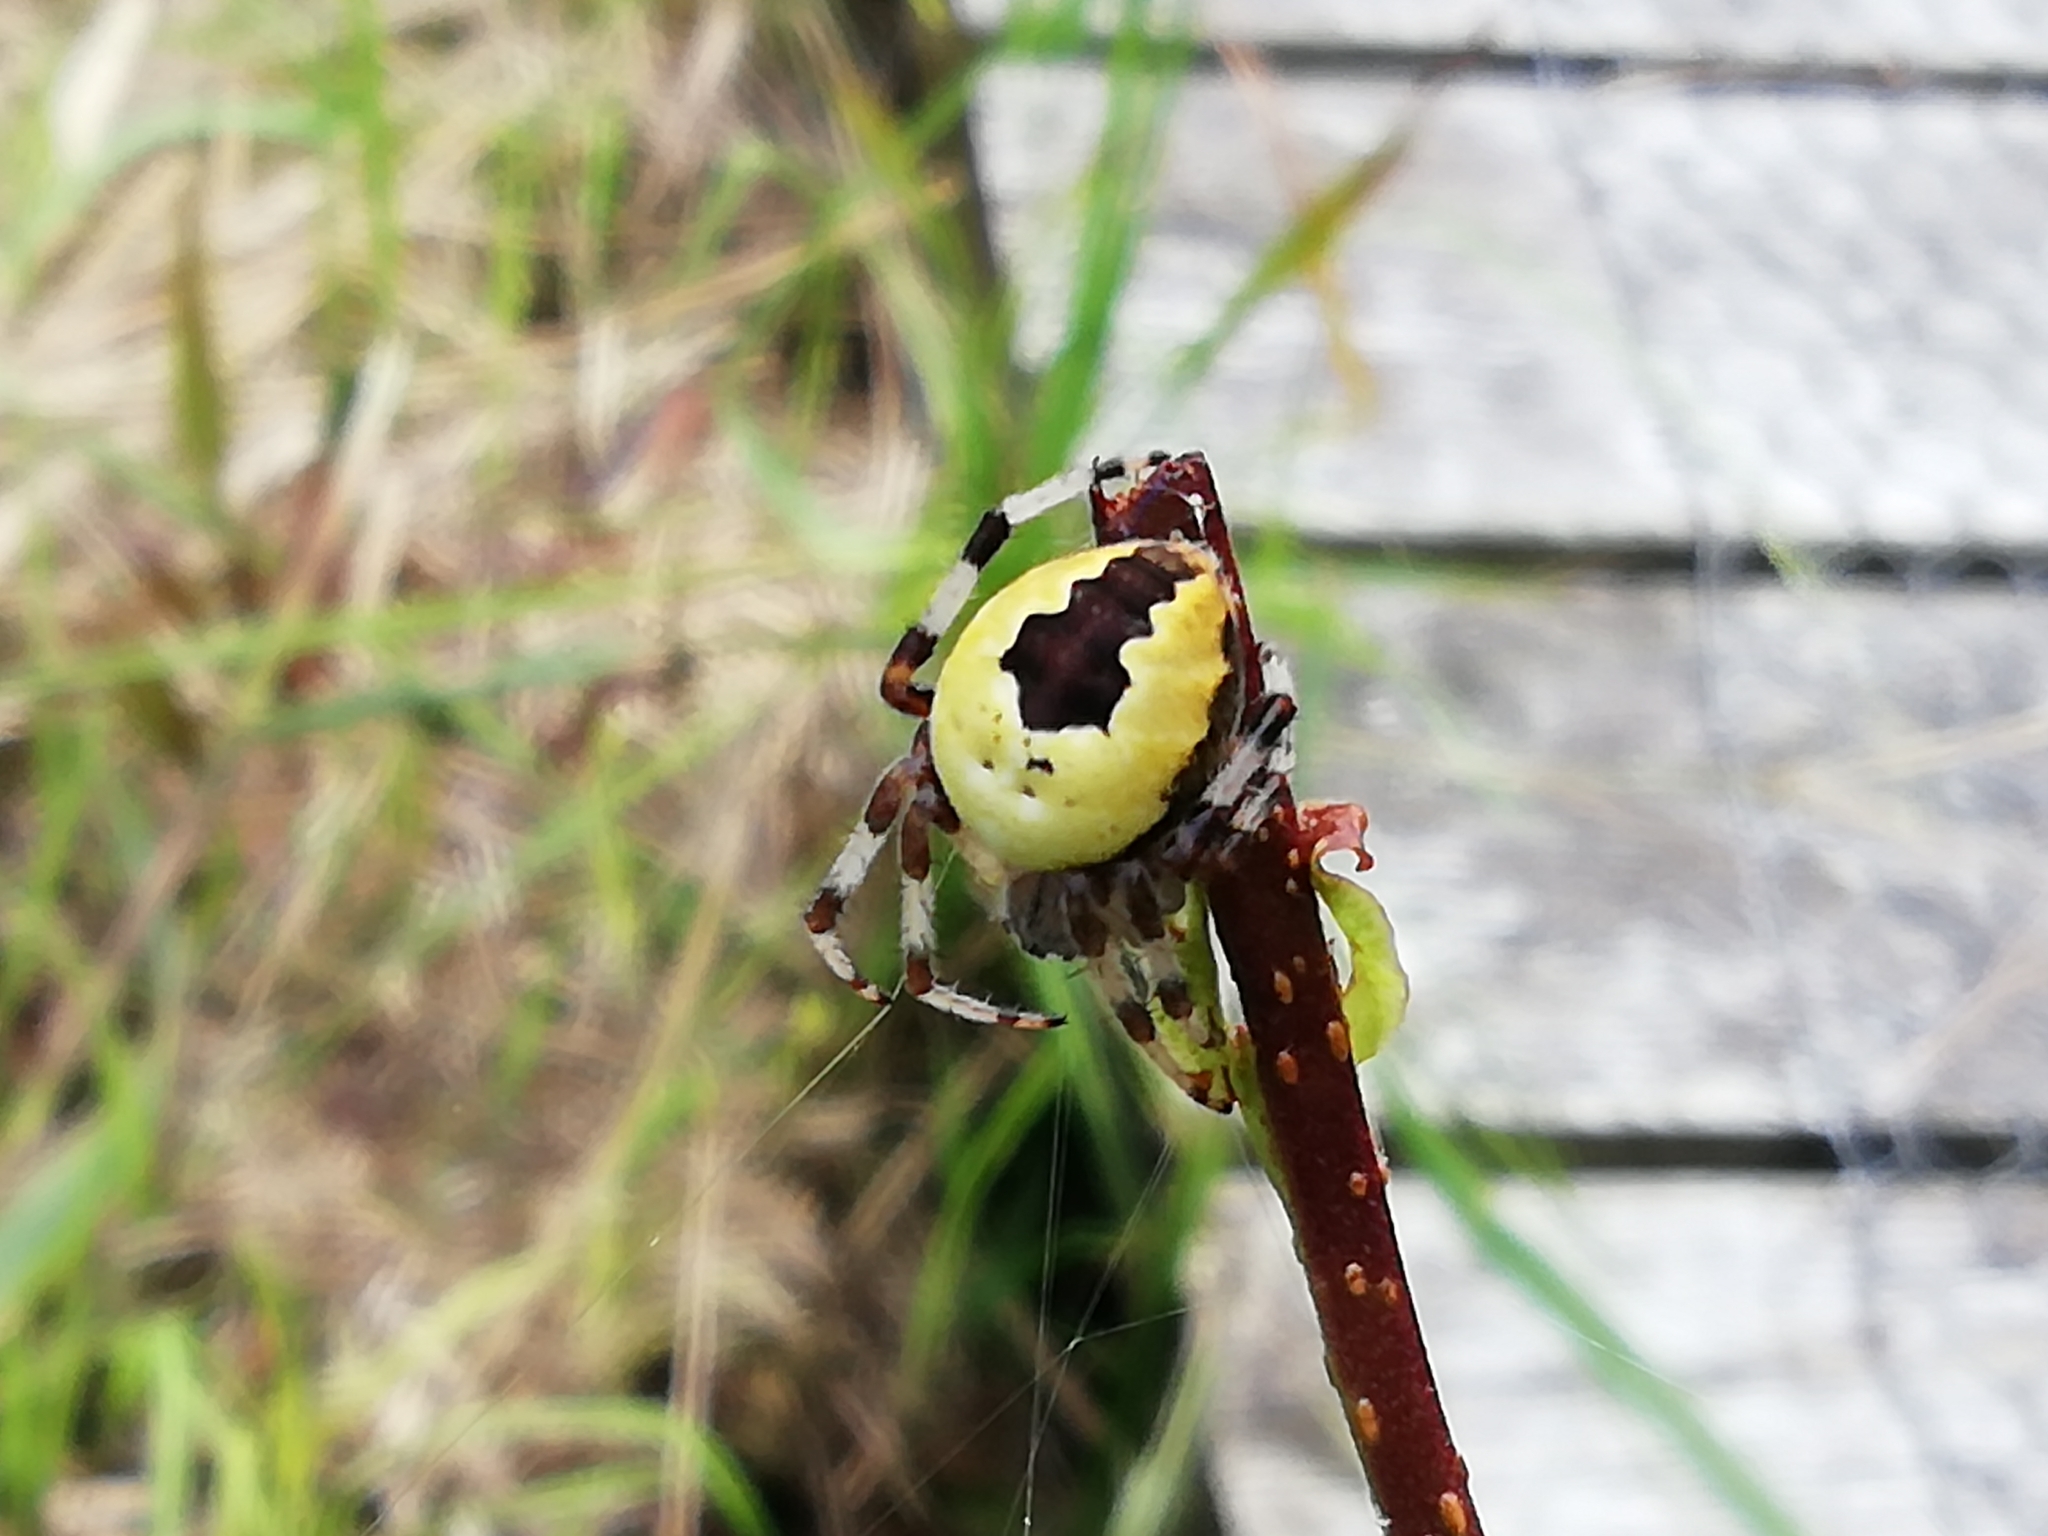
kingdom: Animalia
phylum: Arthropoda
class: Arachnida
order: Araneae
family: Araneidae
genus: Araneus
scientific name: Araneus marmoreus
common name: Marbled orbweaver
